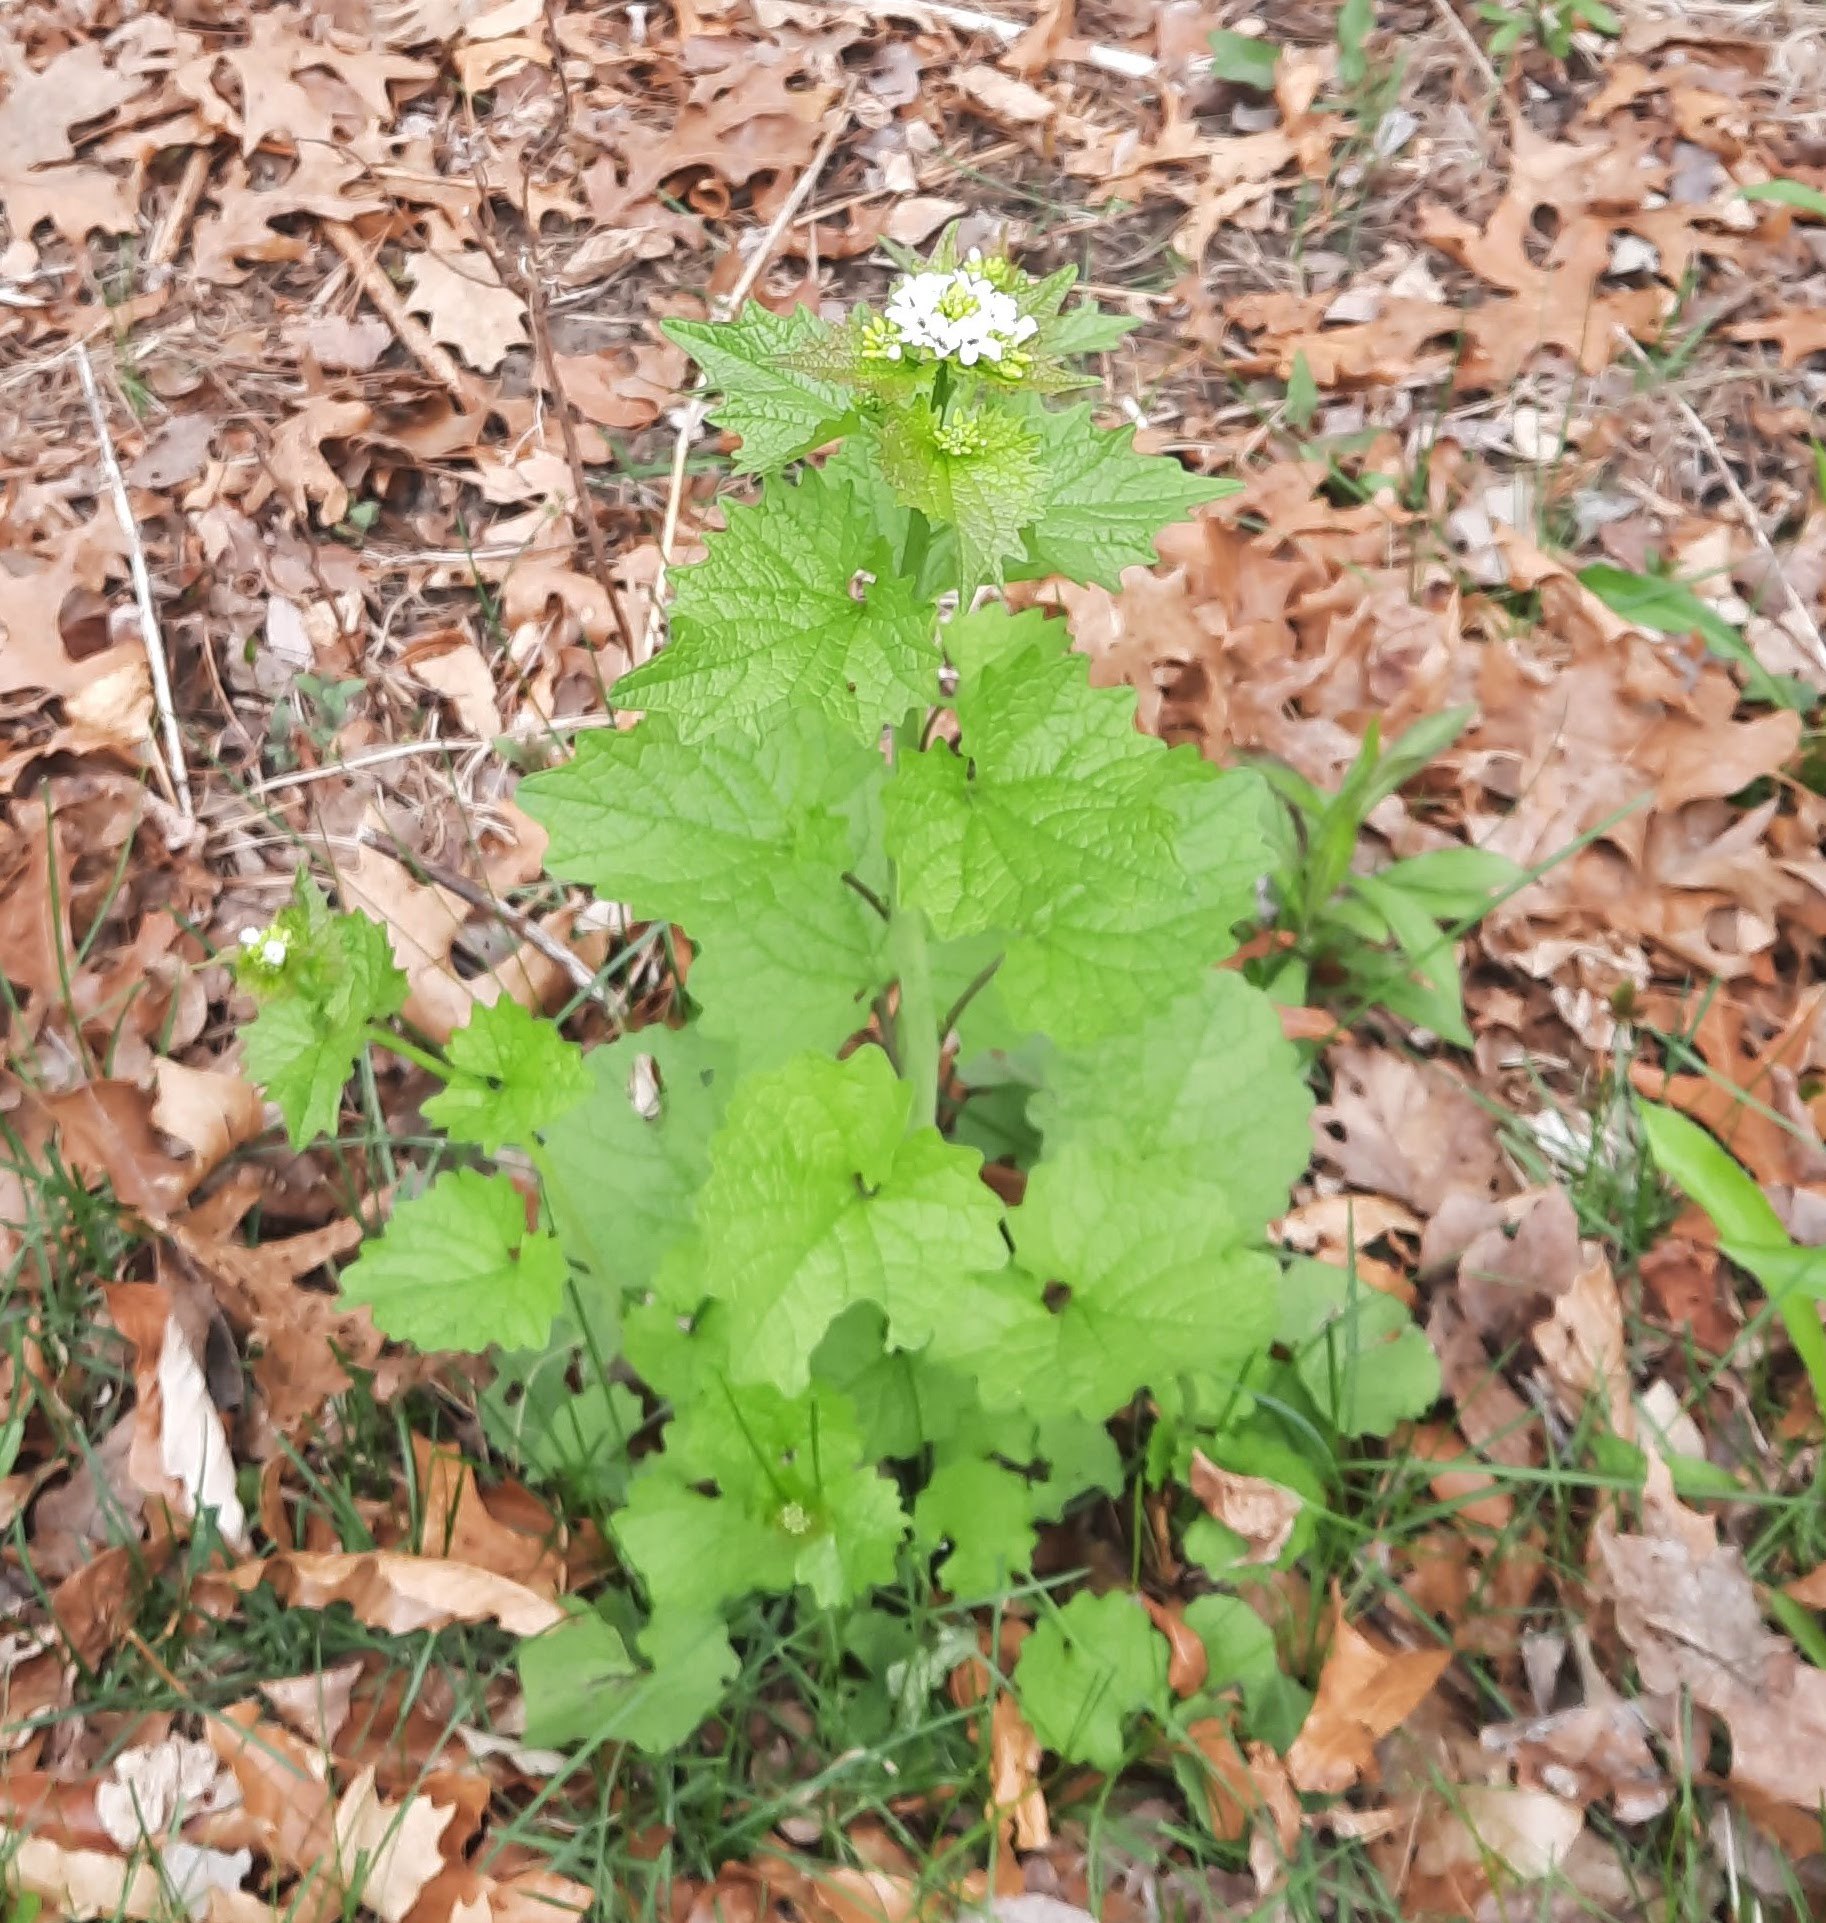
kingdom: Plantae
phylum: Tracheophyta
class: Magnoliopsida
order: Brassicales
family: Brassicaceae
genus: Alliaria
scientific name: Alliaria petiolata
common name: Garlic mustard
